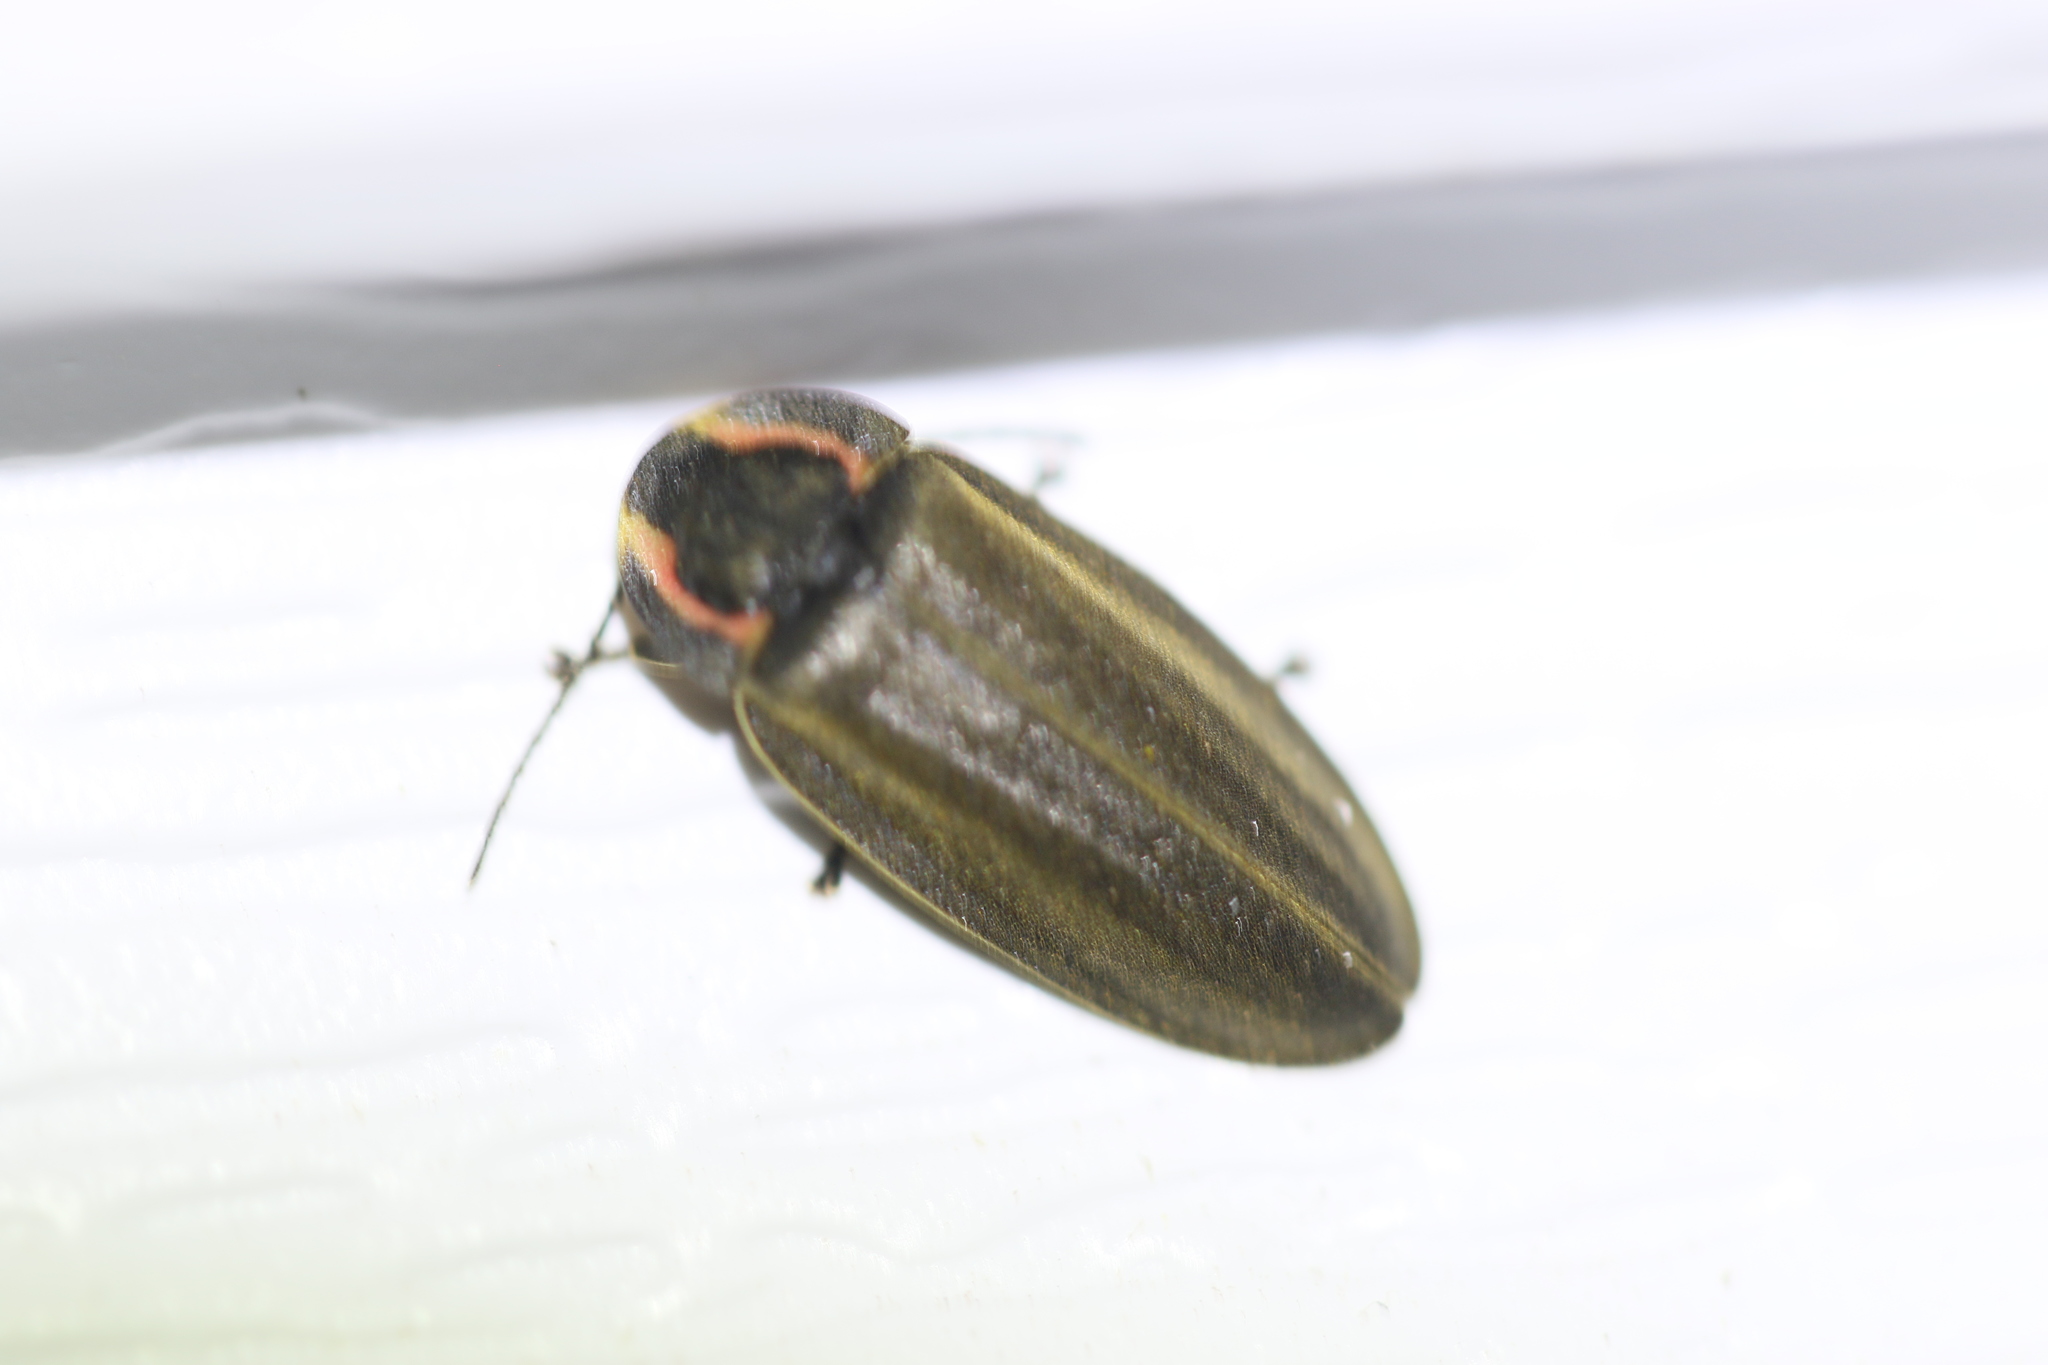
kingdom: Animalia
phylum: Arthropoda
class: Insecta
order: Coleoptera
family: Lampyridae
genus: Photinus
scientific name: Photinus corrusca
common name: Winter firefly
